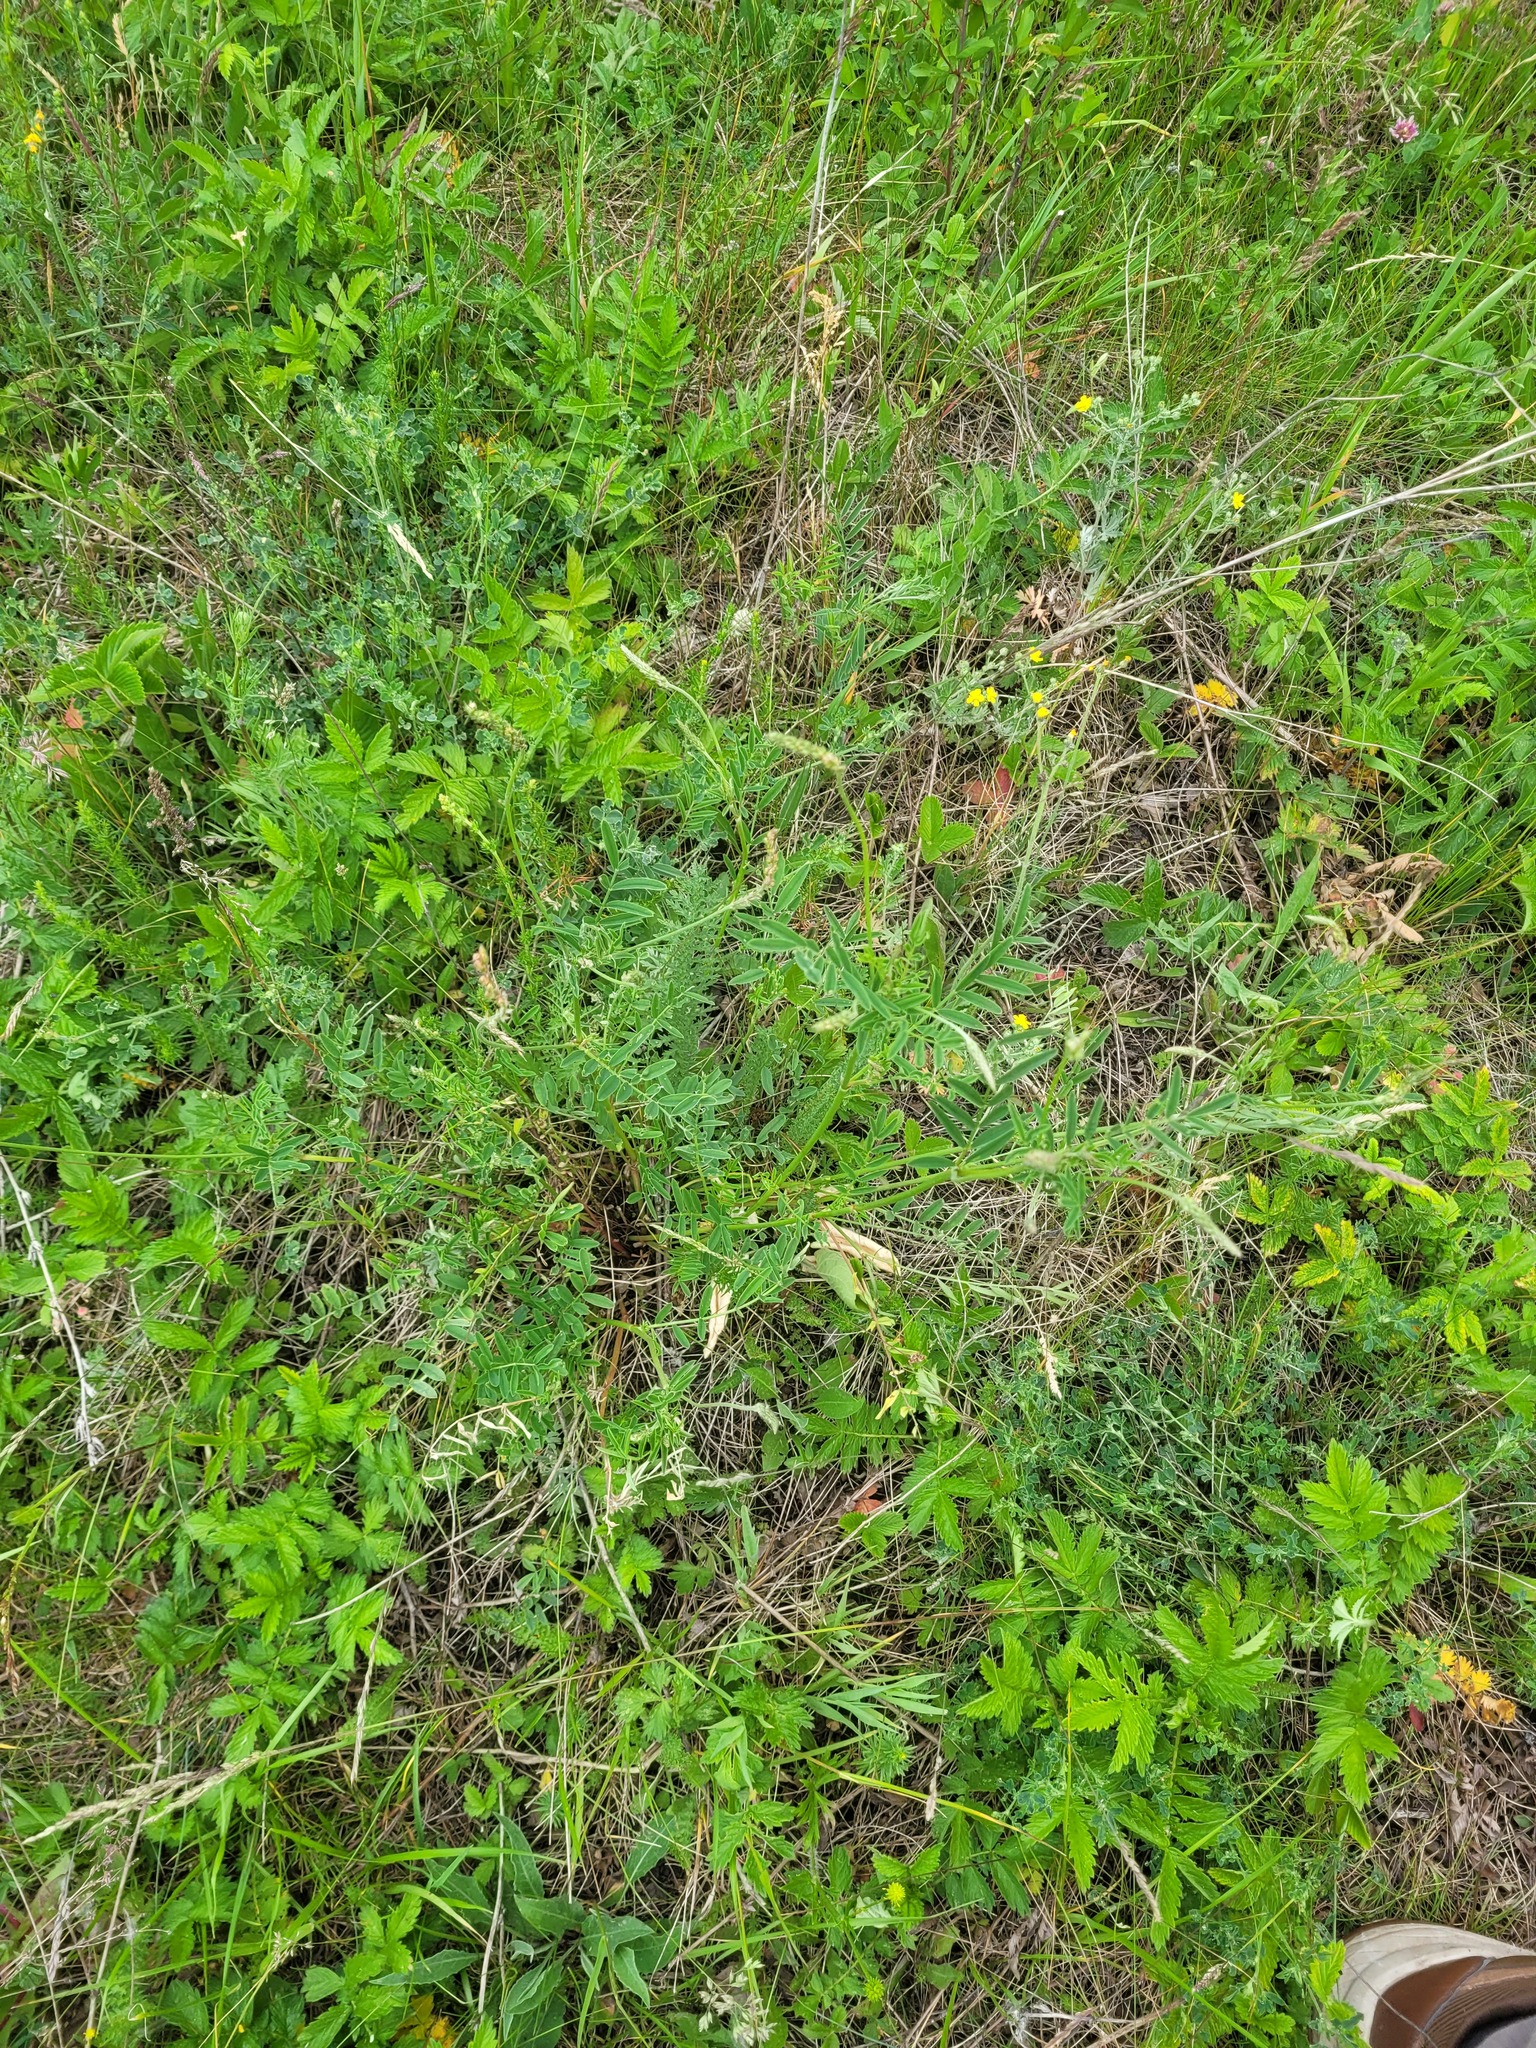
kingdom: Plantae
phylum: Tracheophyta
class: Magnoliopsida
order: Fabales
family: Fabaceae
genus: Onobrychis
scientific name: Onobrychis viciifolia
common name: Sainfoin
